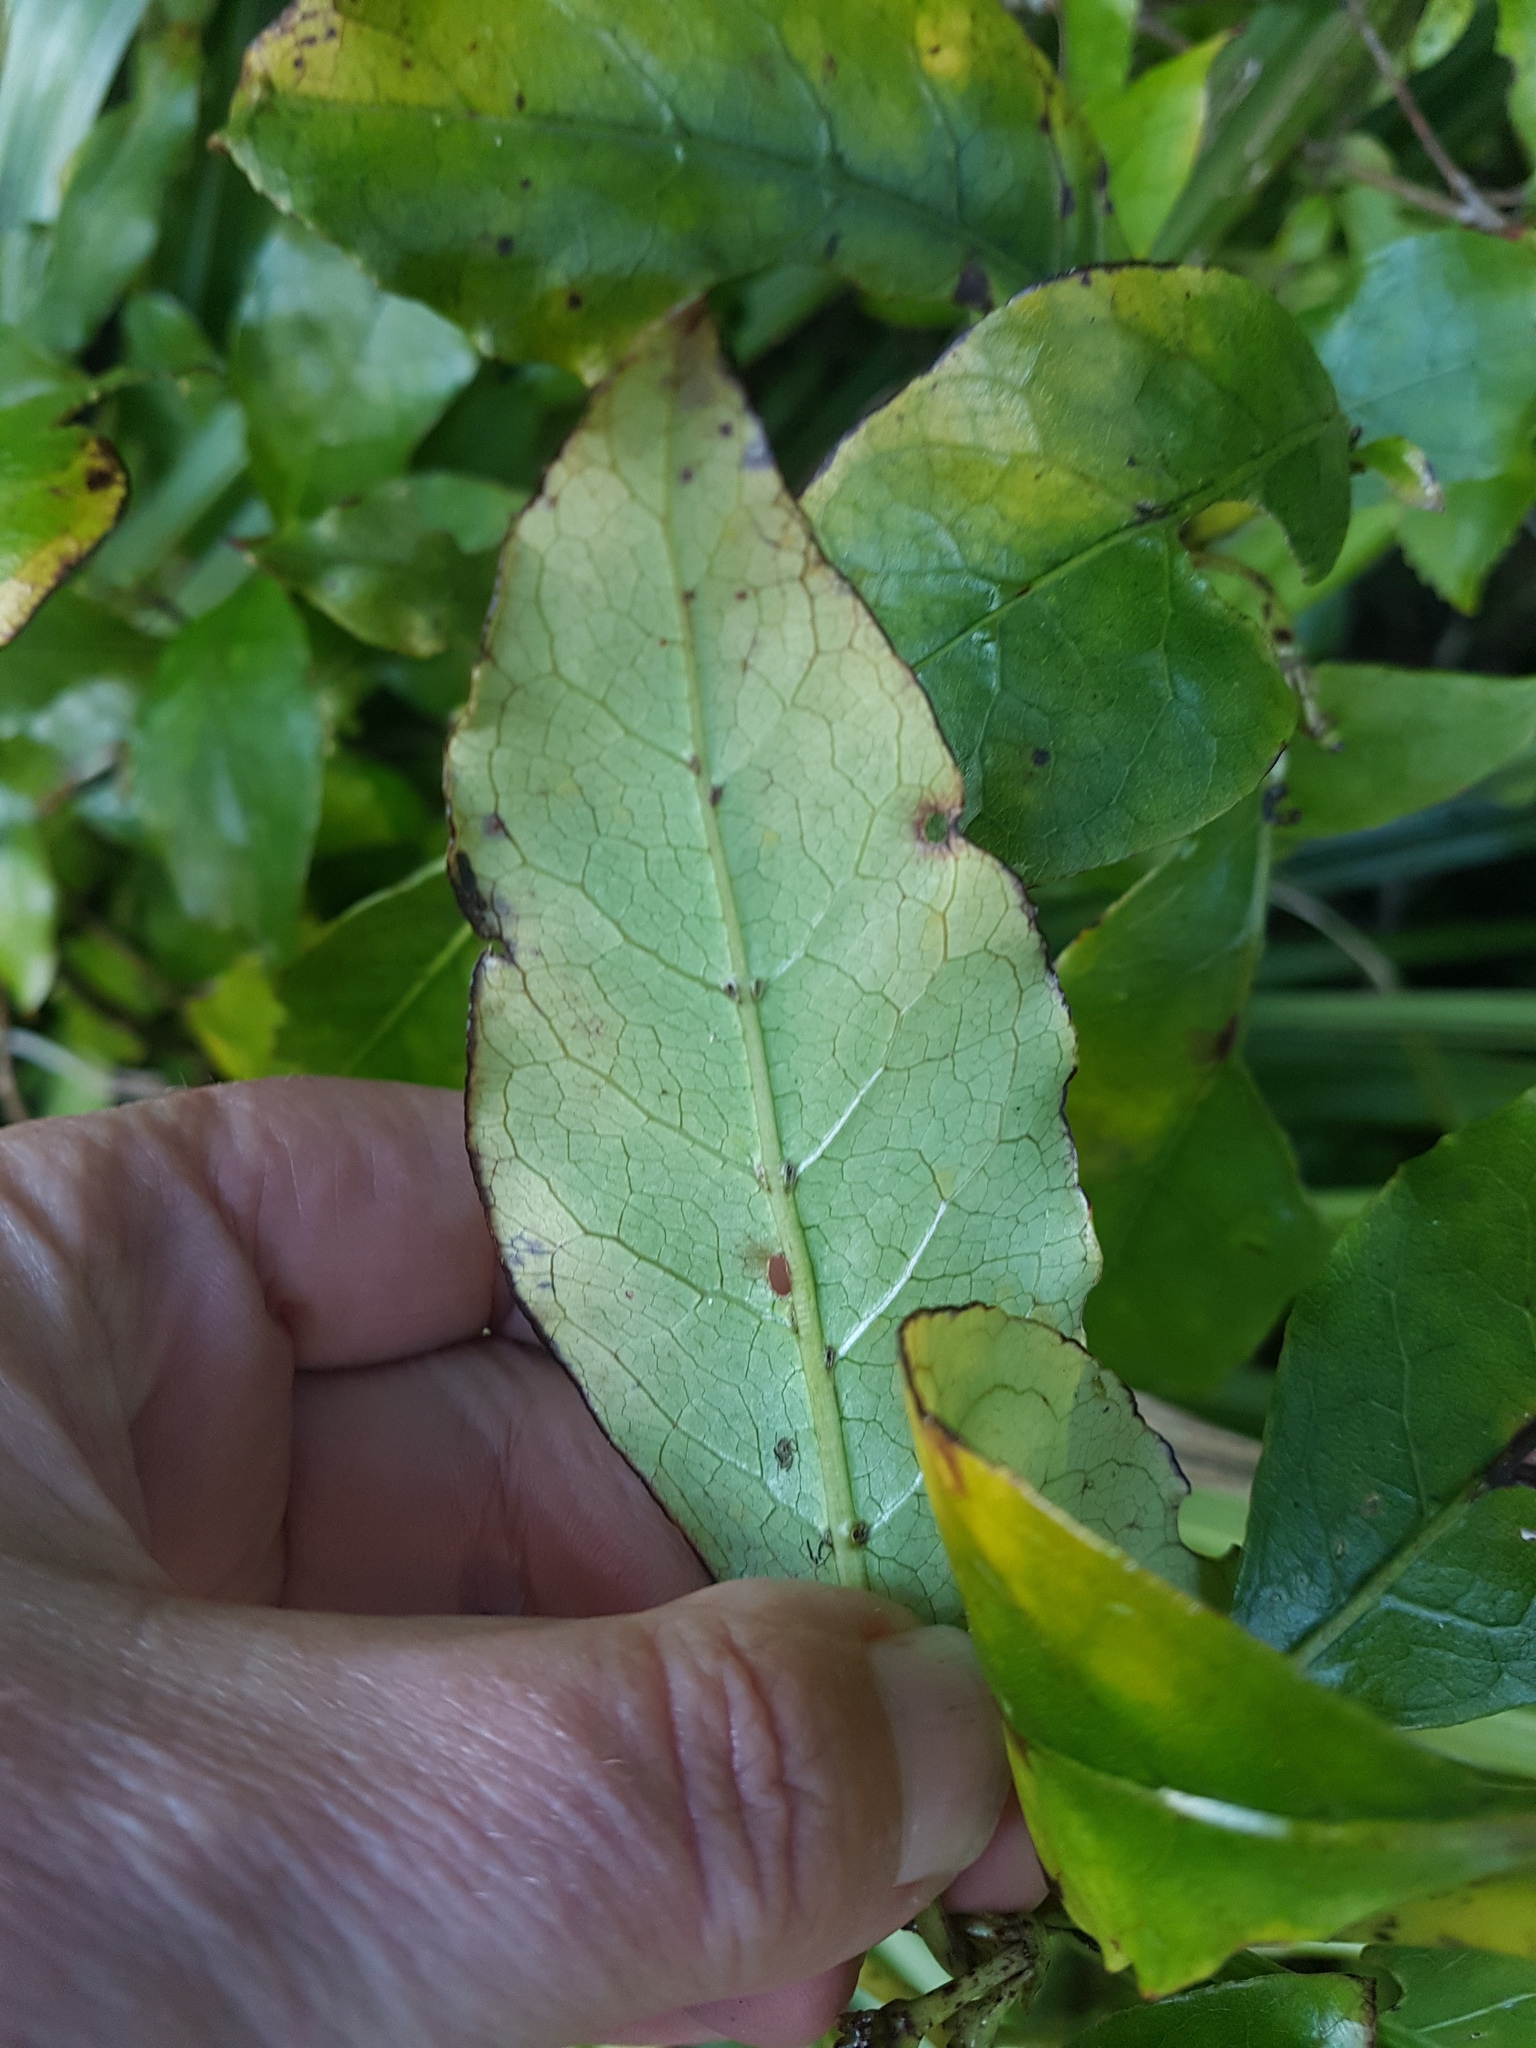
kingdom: Plantae
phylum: Tracheophyta
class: Magnoliopsida
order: Gentianales
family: Rubiaceae
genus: Coprosma
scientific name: Coprosma autumnalis
